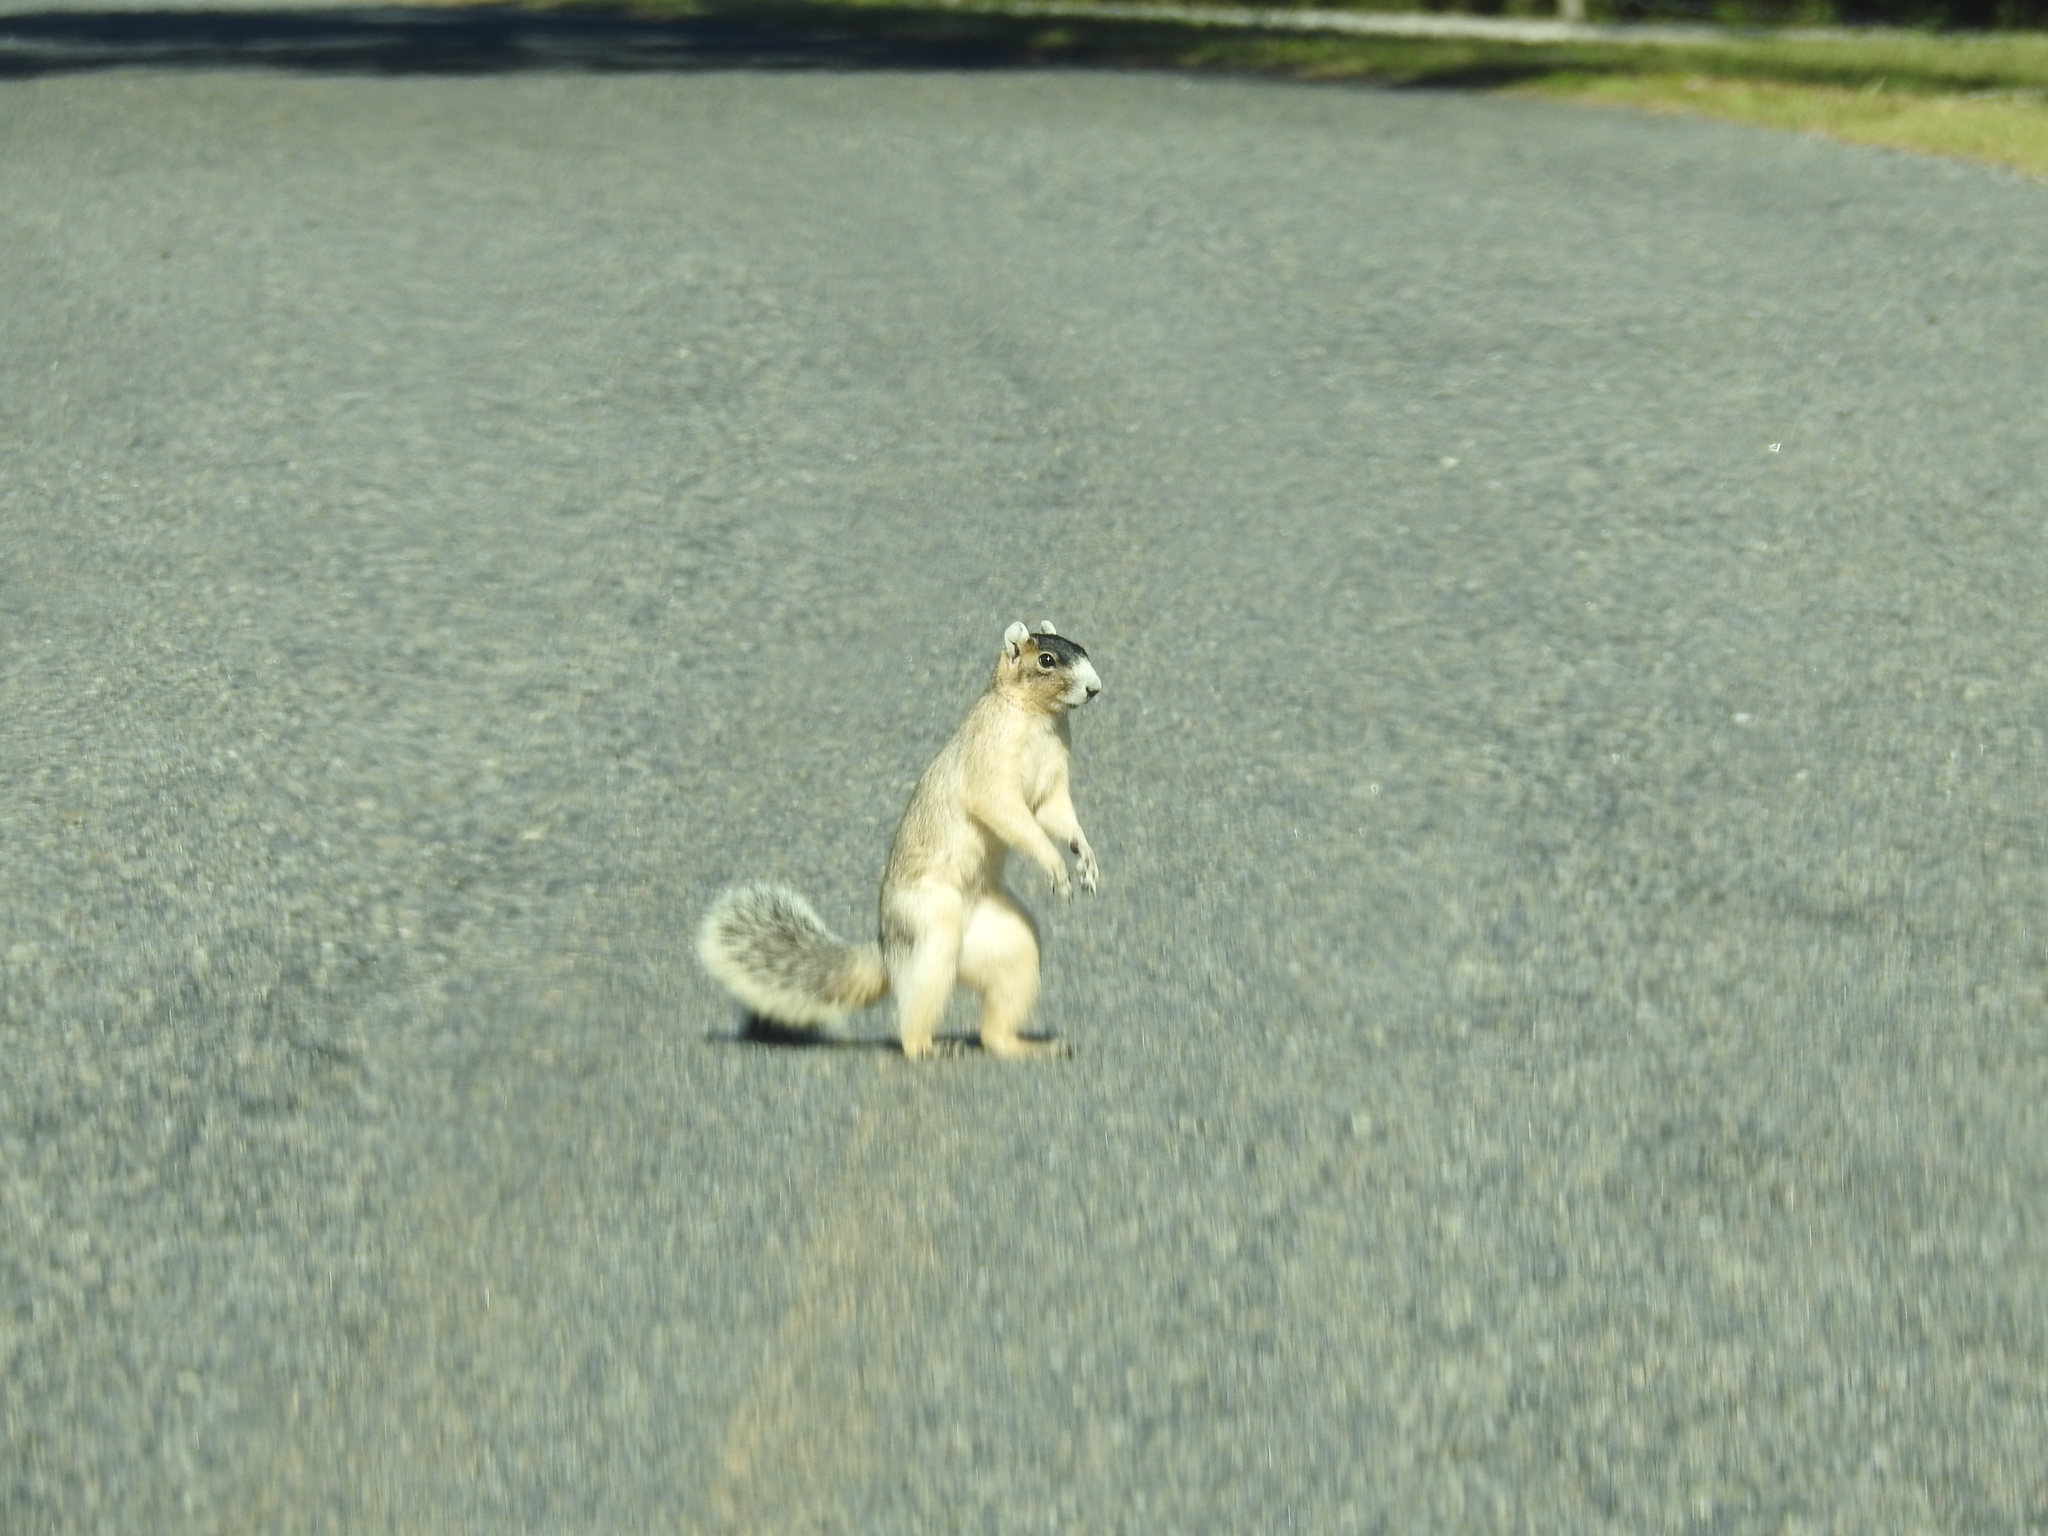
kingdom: Animalia
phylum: Chordata
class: Mammalia
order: Rodentia
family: Sciuridae
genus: Sciurus
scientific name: Sciurus niger
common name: Fox squirrel
